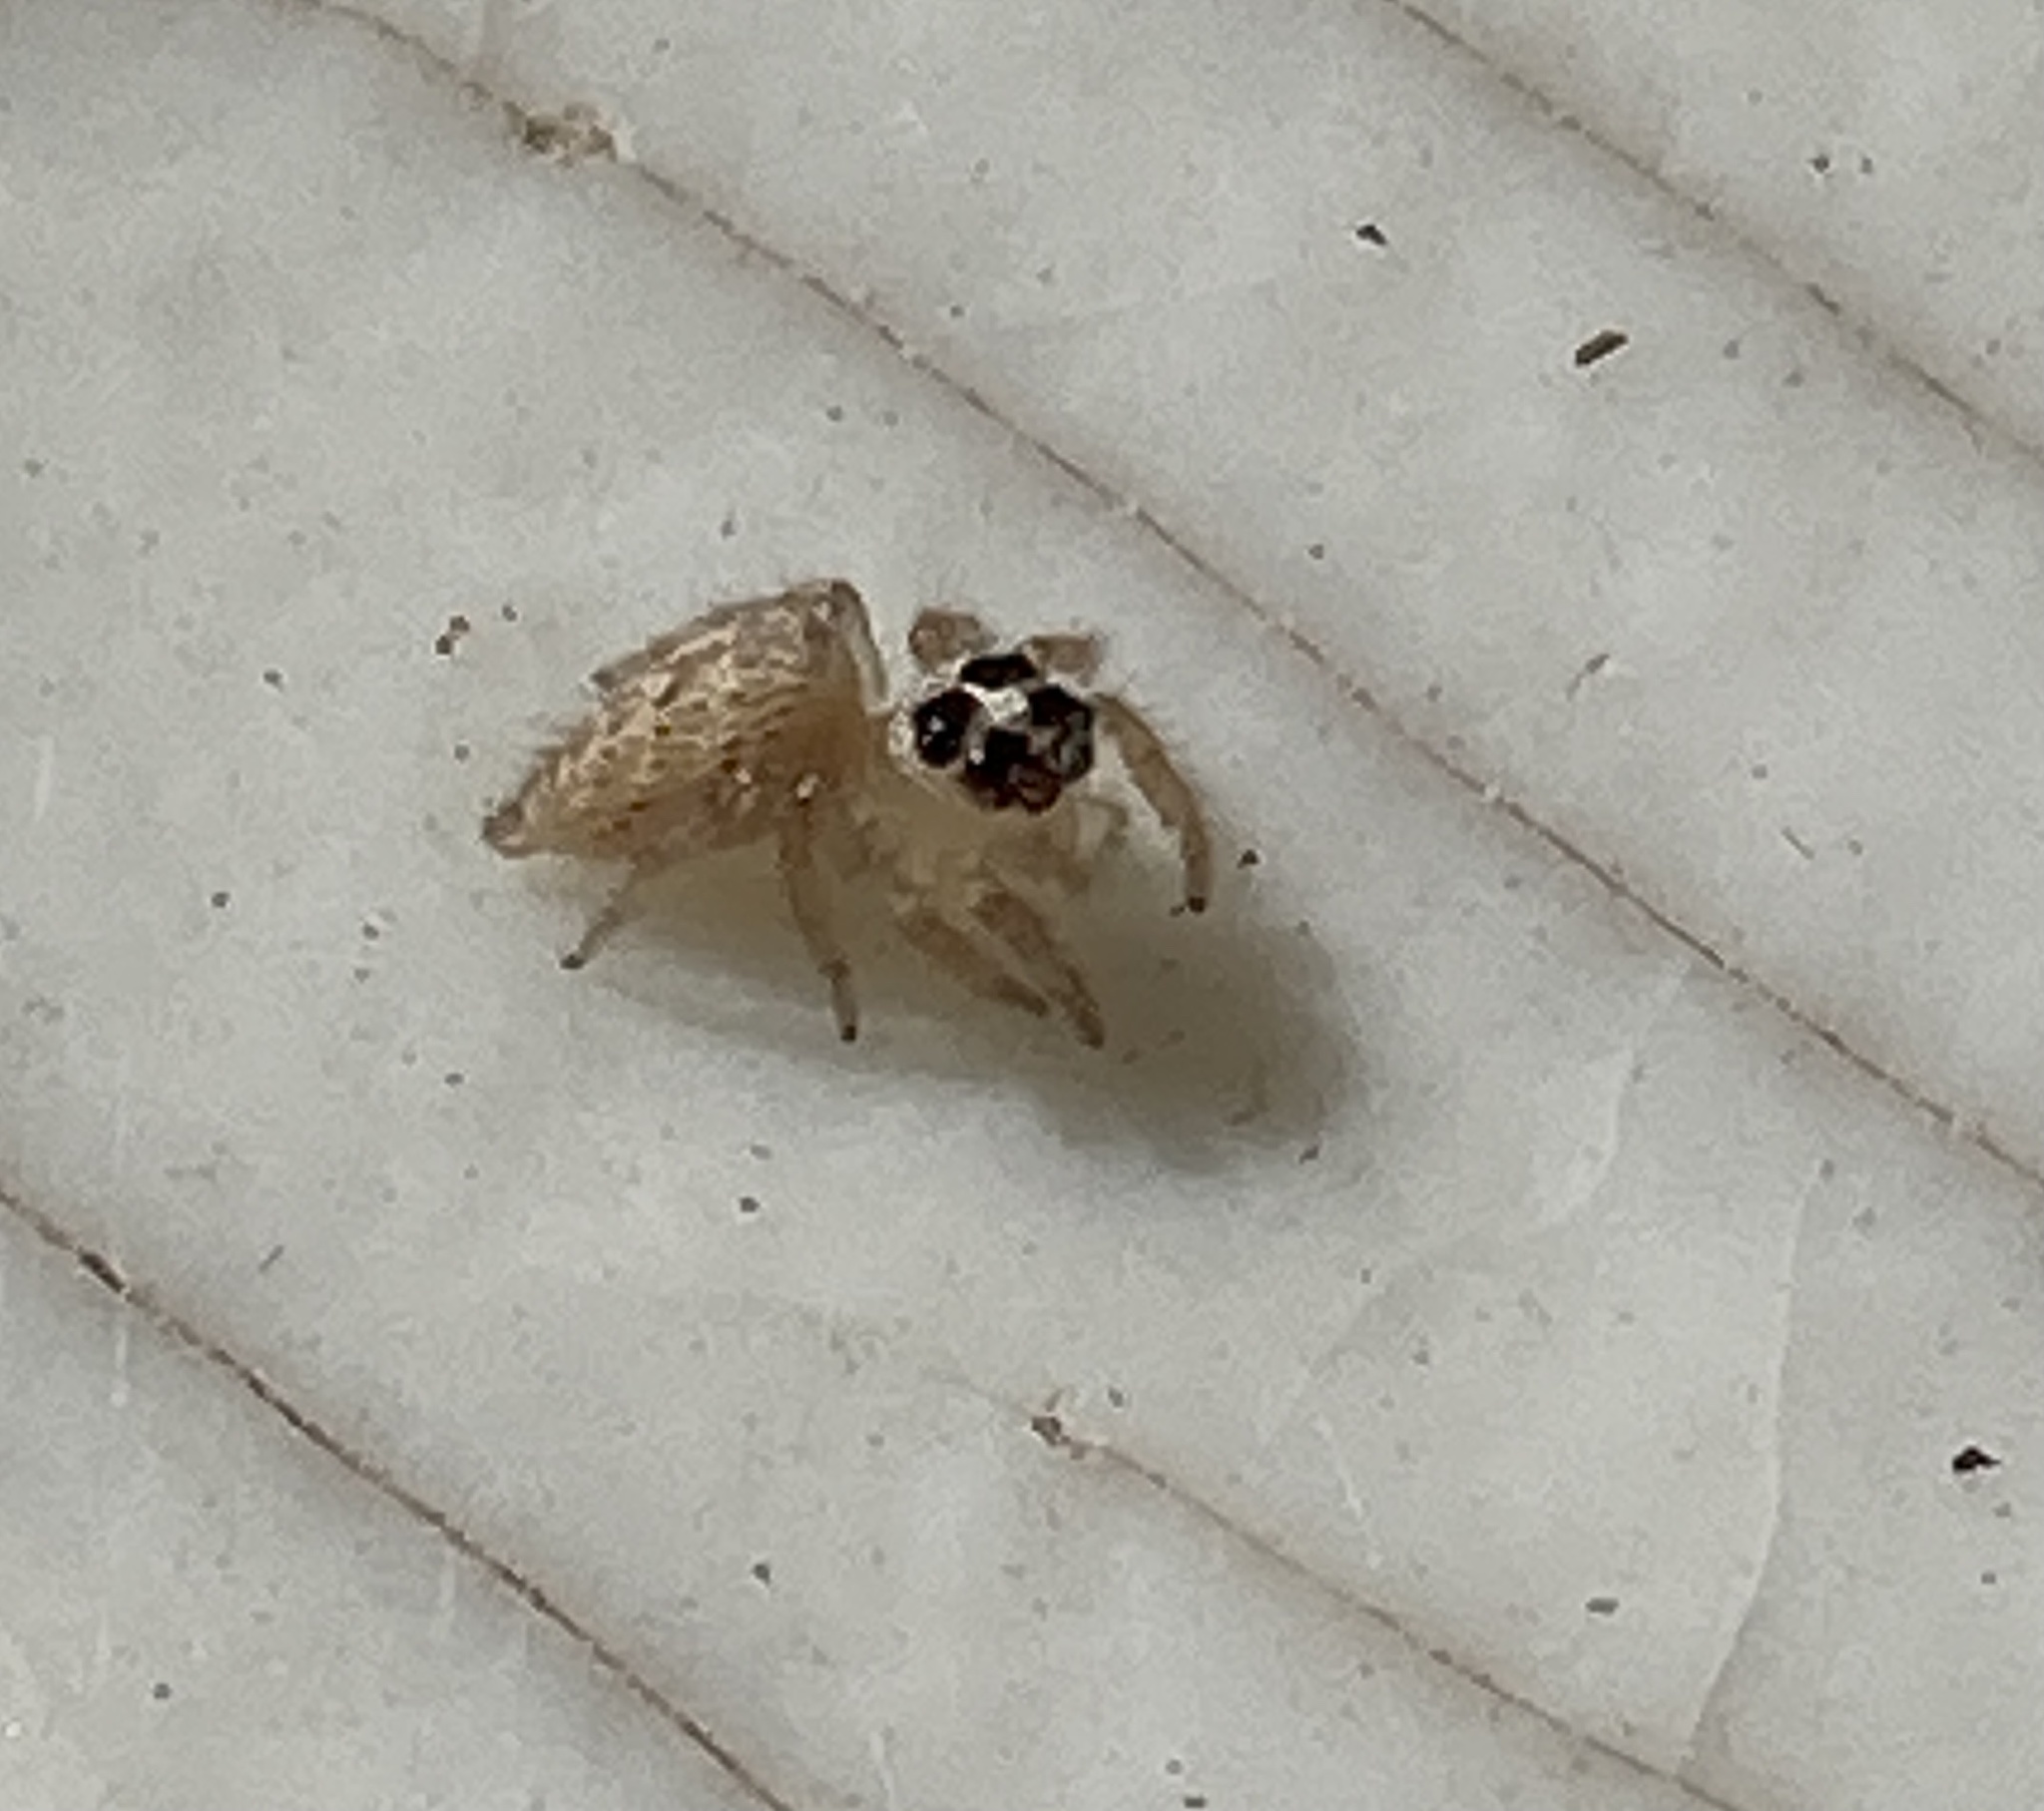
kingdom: Animalia
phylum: Arthropoda
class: Arachnida
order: Araneae
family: Salticidae
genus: Colonus
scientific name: Colonus hesperus
